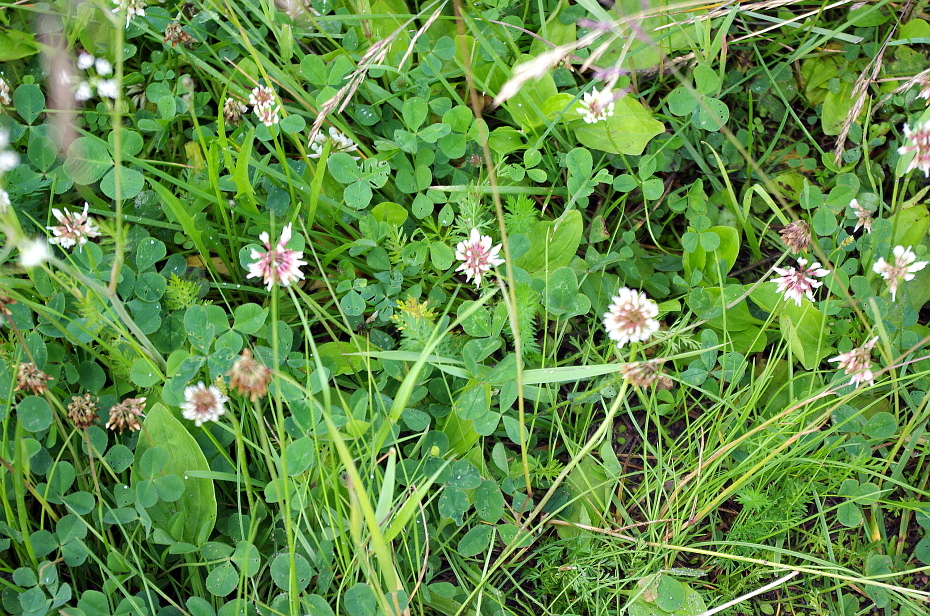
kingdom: Plantae
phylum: Tracheophyta
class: Magnoliopsida
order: Fabales
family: Fabaceae
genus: Trifolium
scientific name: Trifolium repens
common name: White clover
